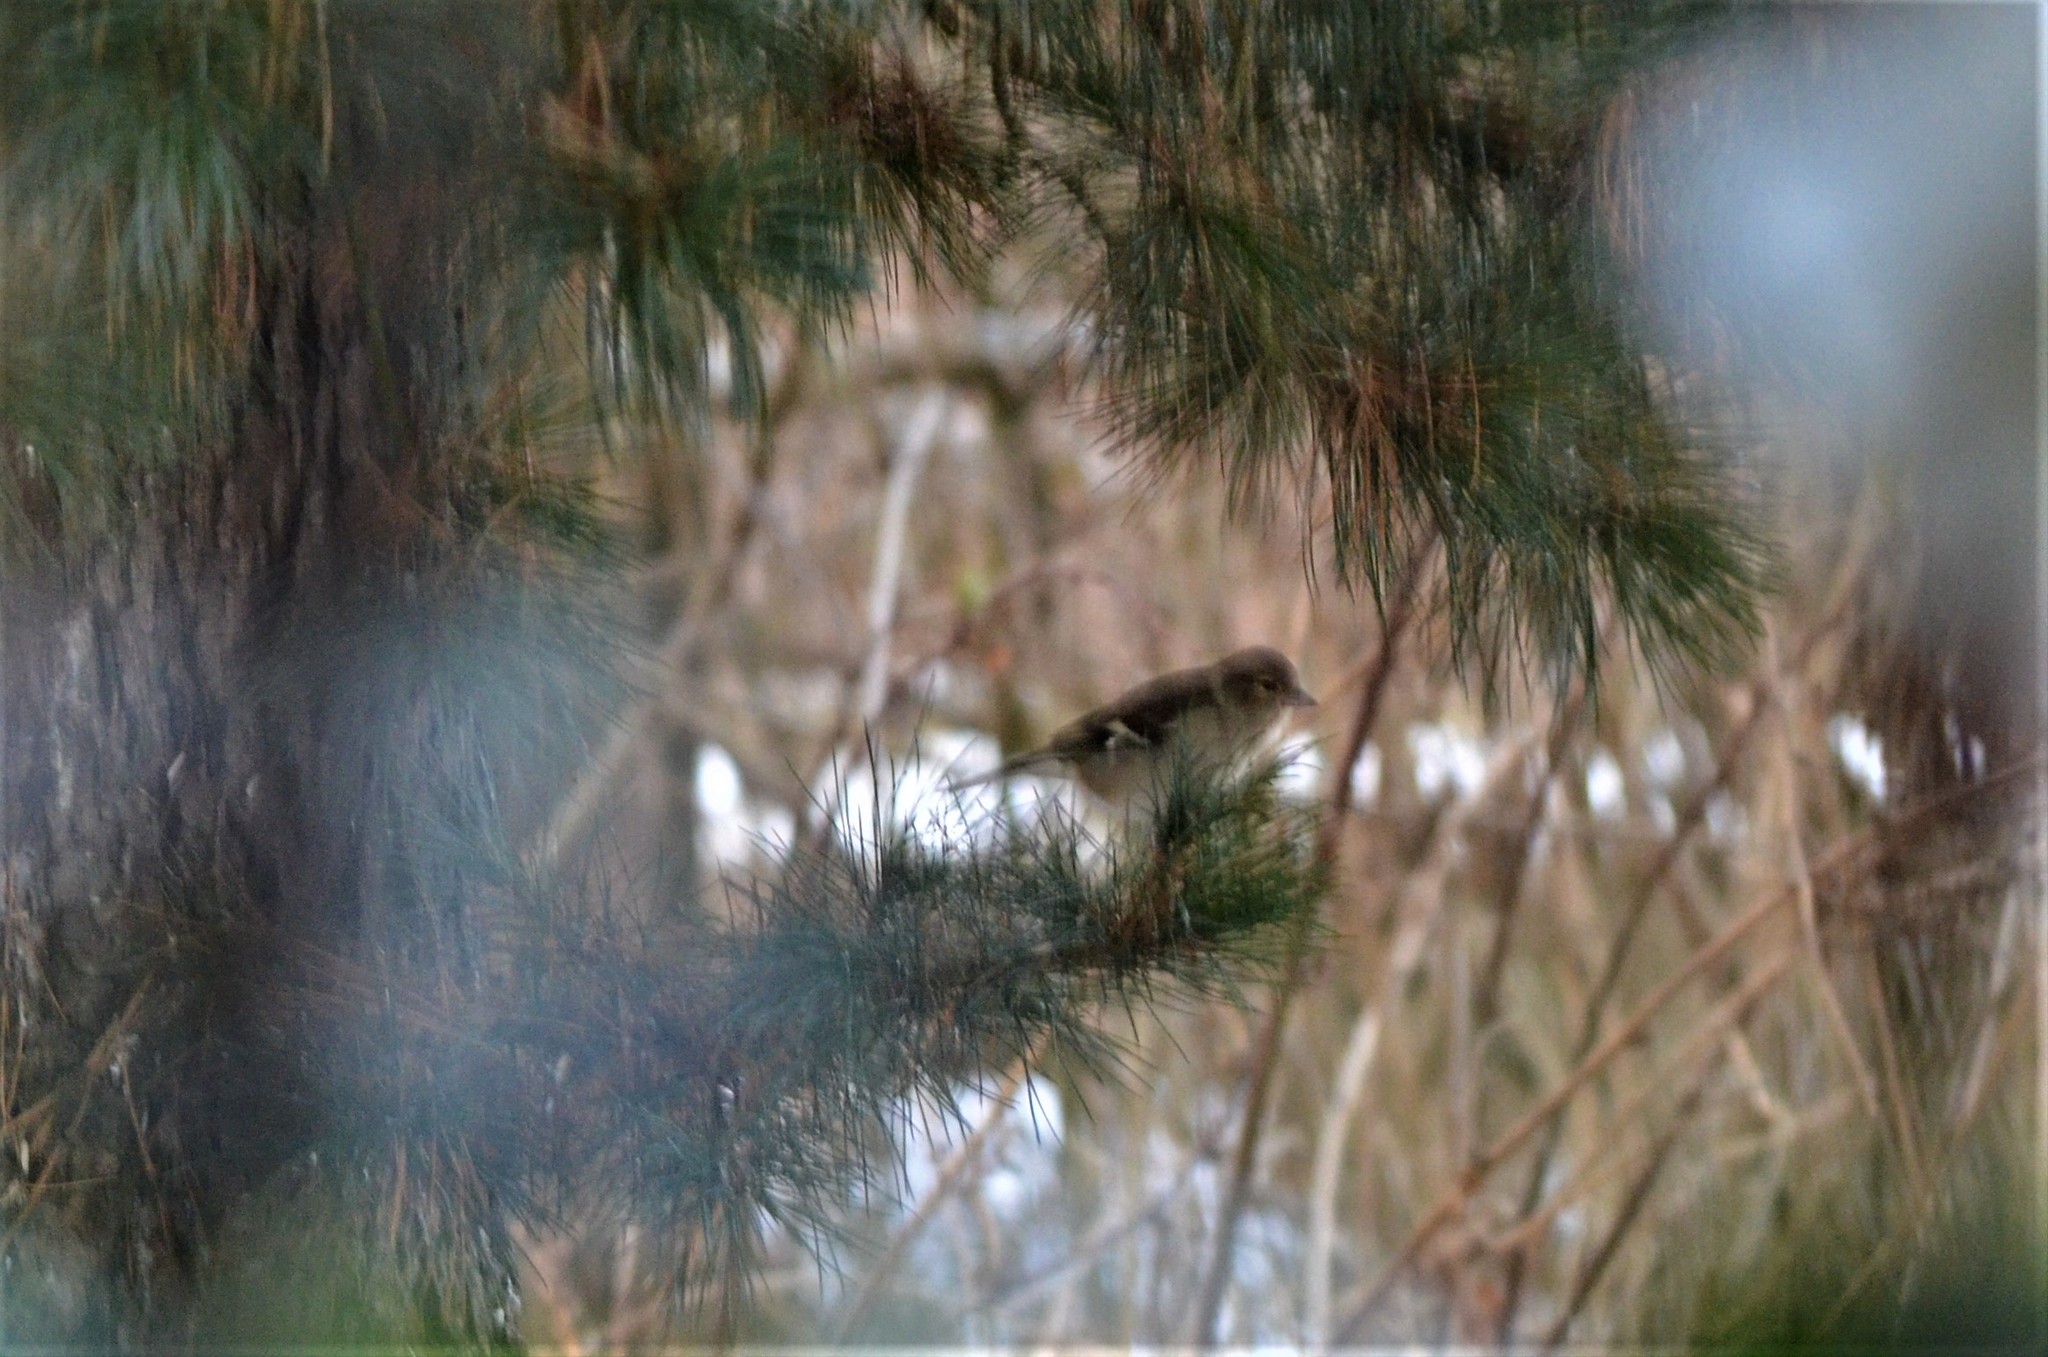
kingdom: Animalia
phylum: Chordata
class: Aves
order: Passeriformes
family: Fringillidae
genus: Fringilla
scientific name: Fringilla coelebs
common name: Common chaffinch
